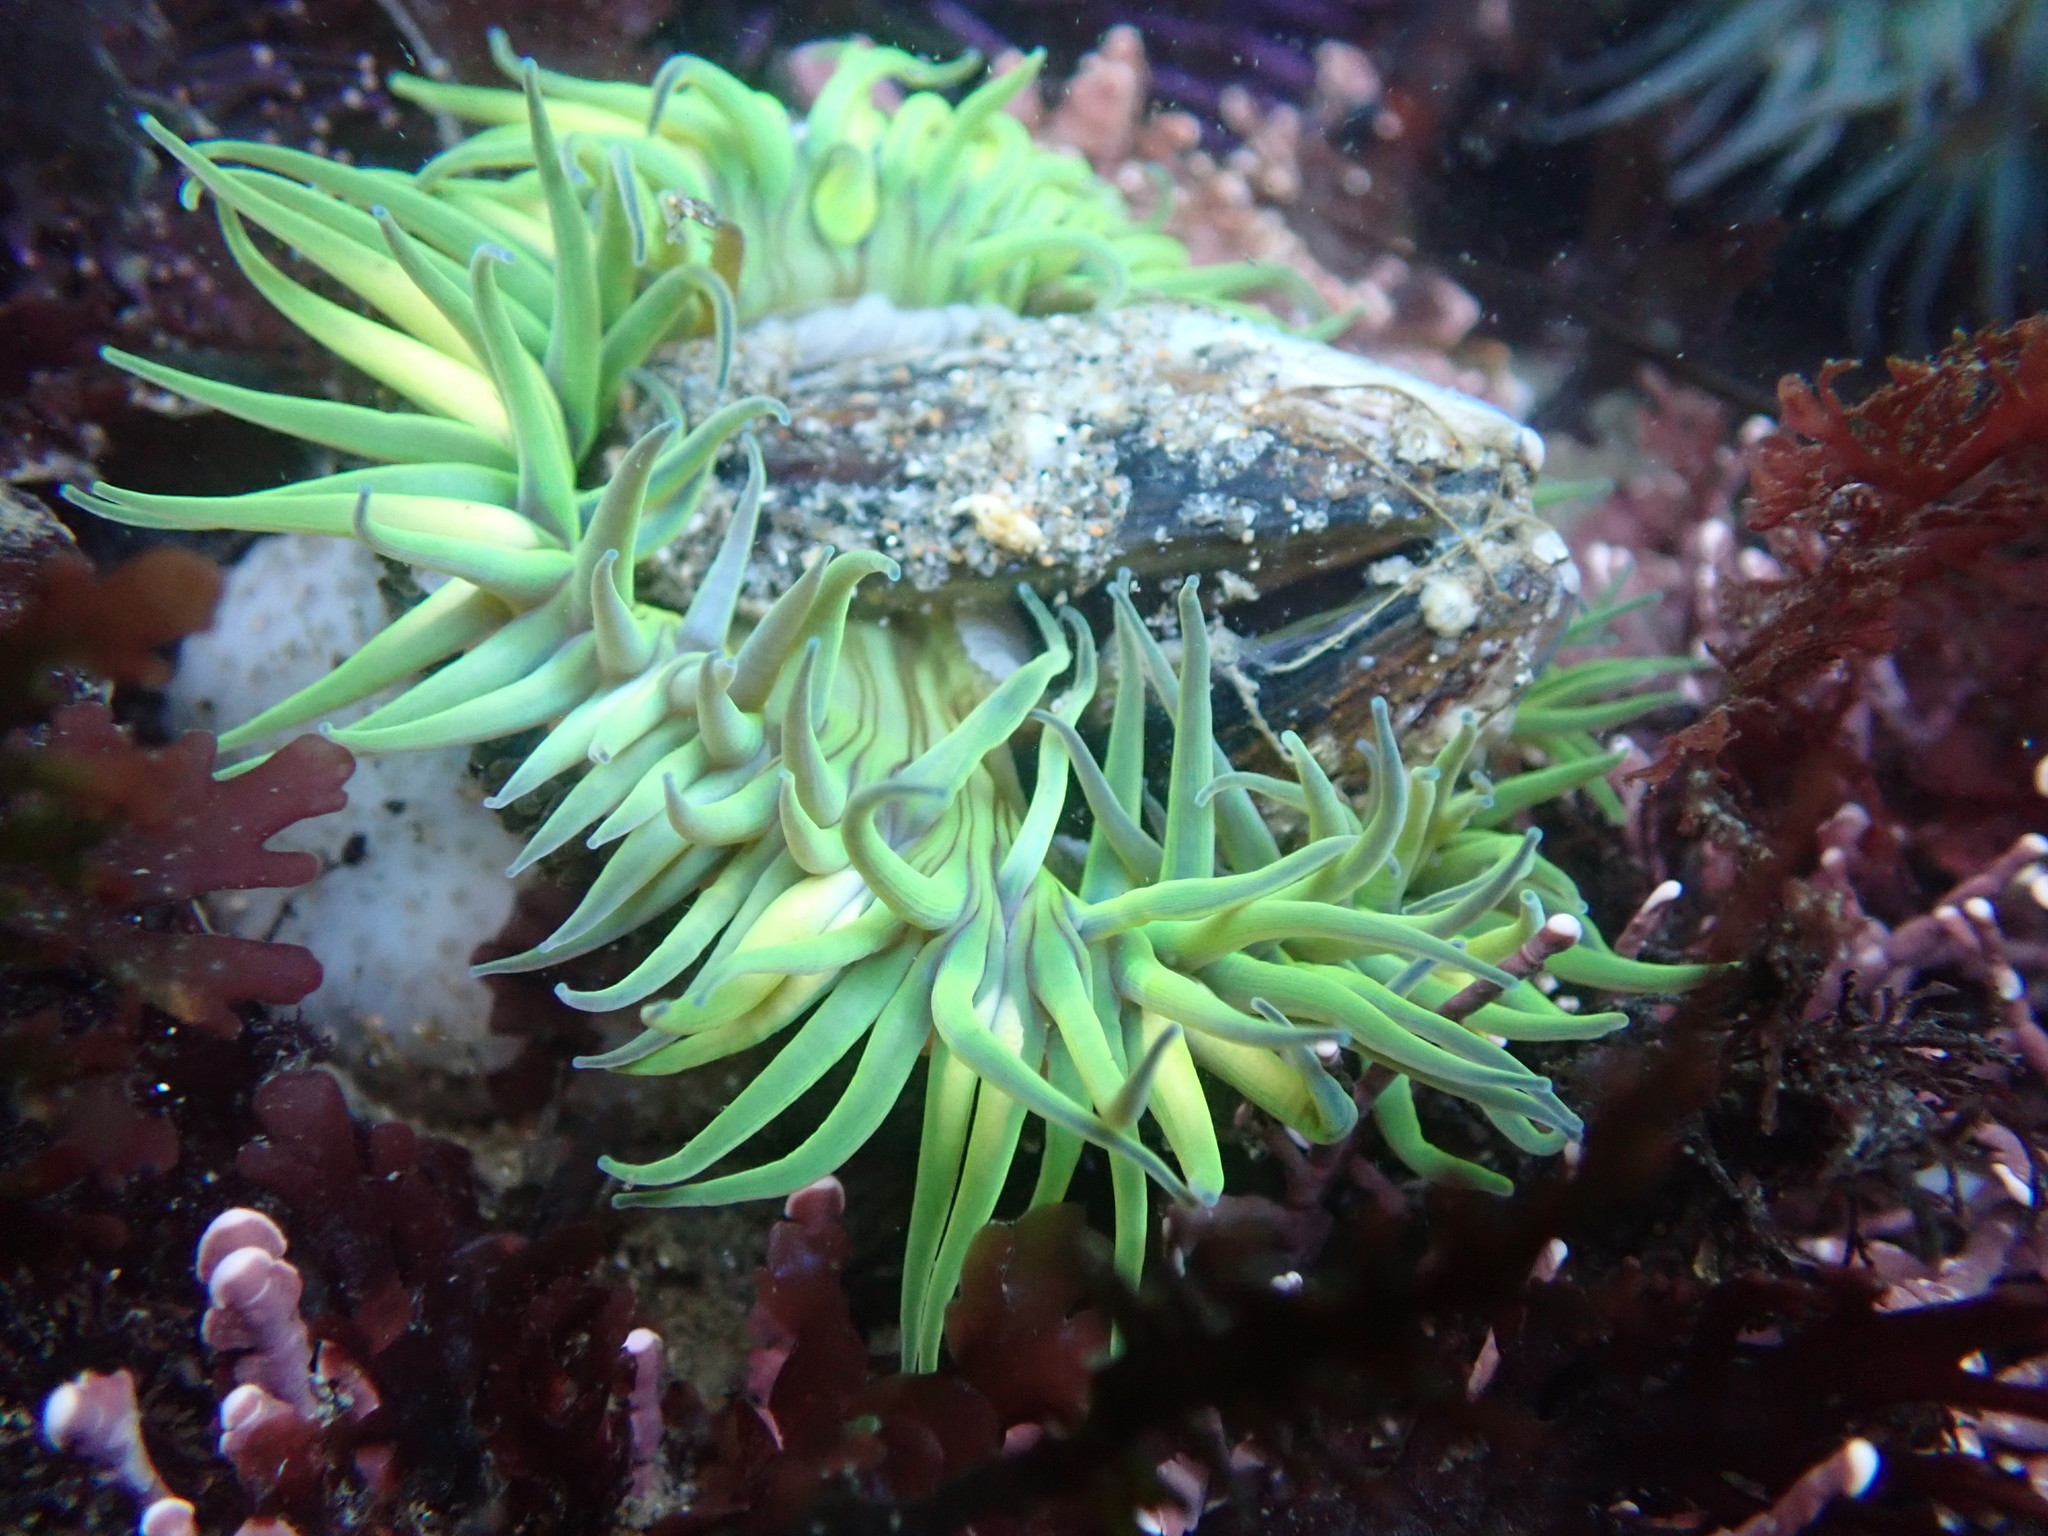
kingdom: Animalia
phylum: Cnidaria
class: Anthozoa
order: Actiniaria
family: Actiniidae
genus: Anthopleura
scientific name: Anthopleura sola
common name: Sun anemone
